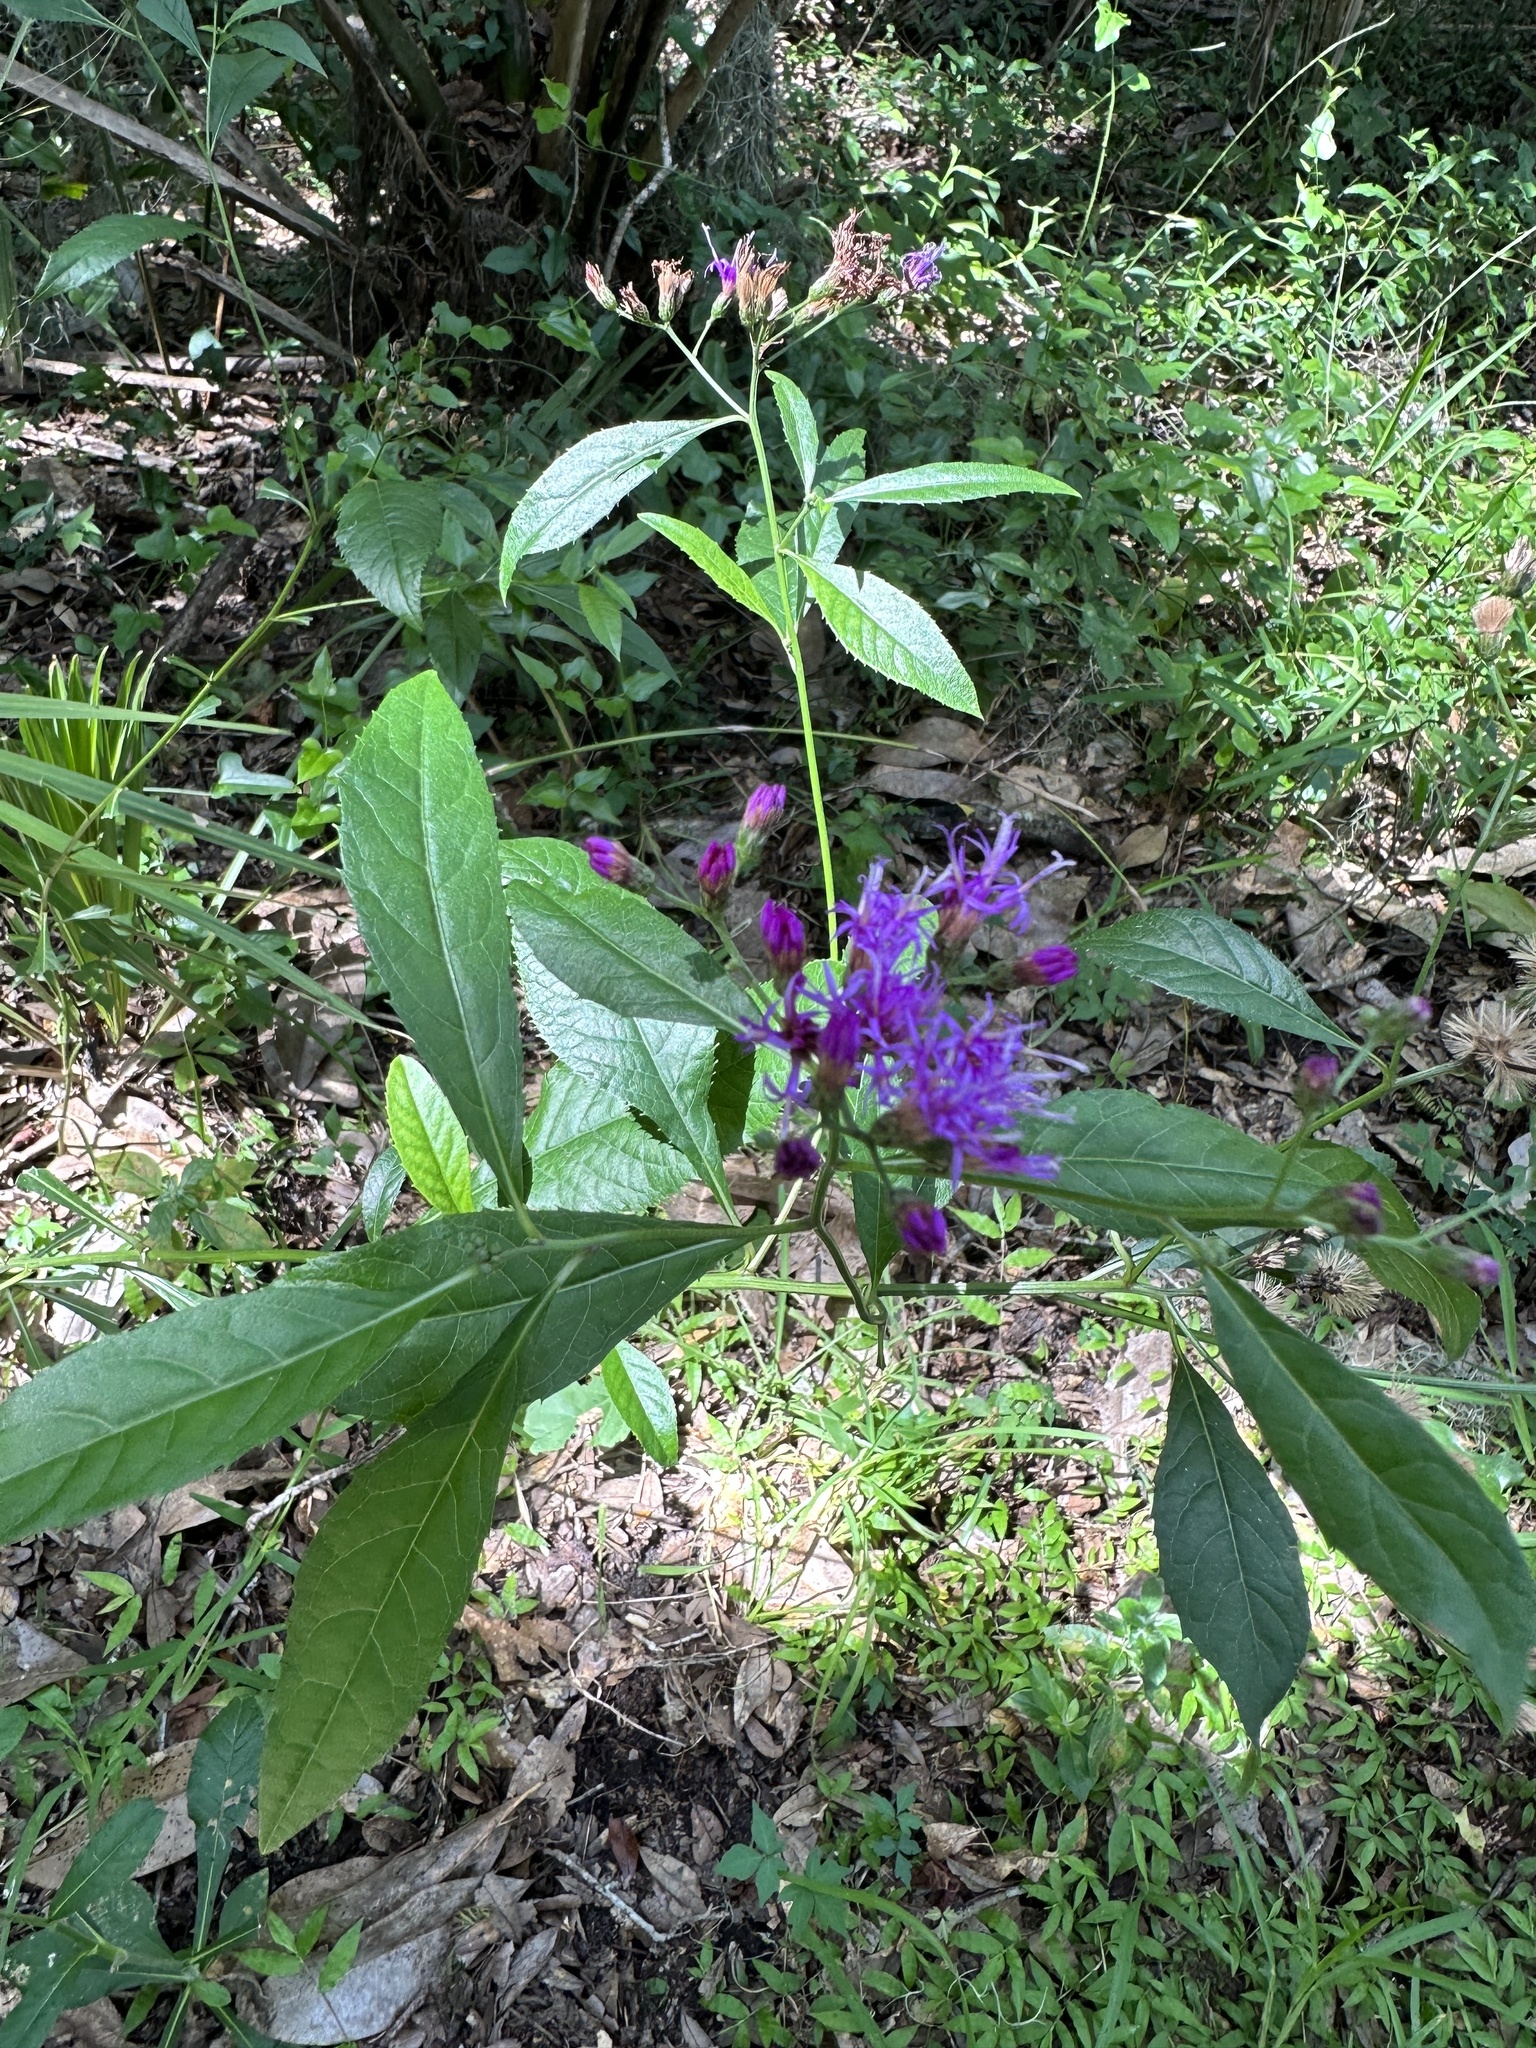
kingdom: Plantae
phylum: Tracheophyta
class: Magnoliopsida
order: Asterales
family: Asteraceae
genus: Vernonia
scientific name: Vernonia gigantea
